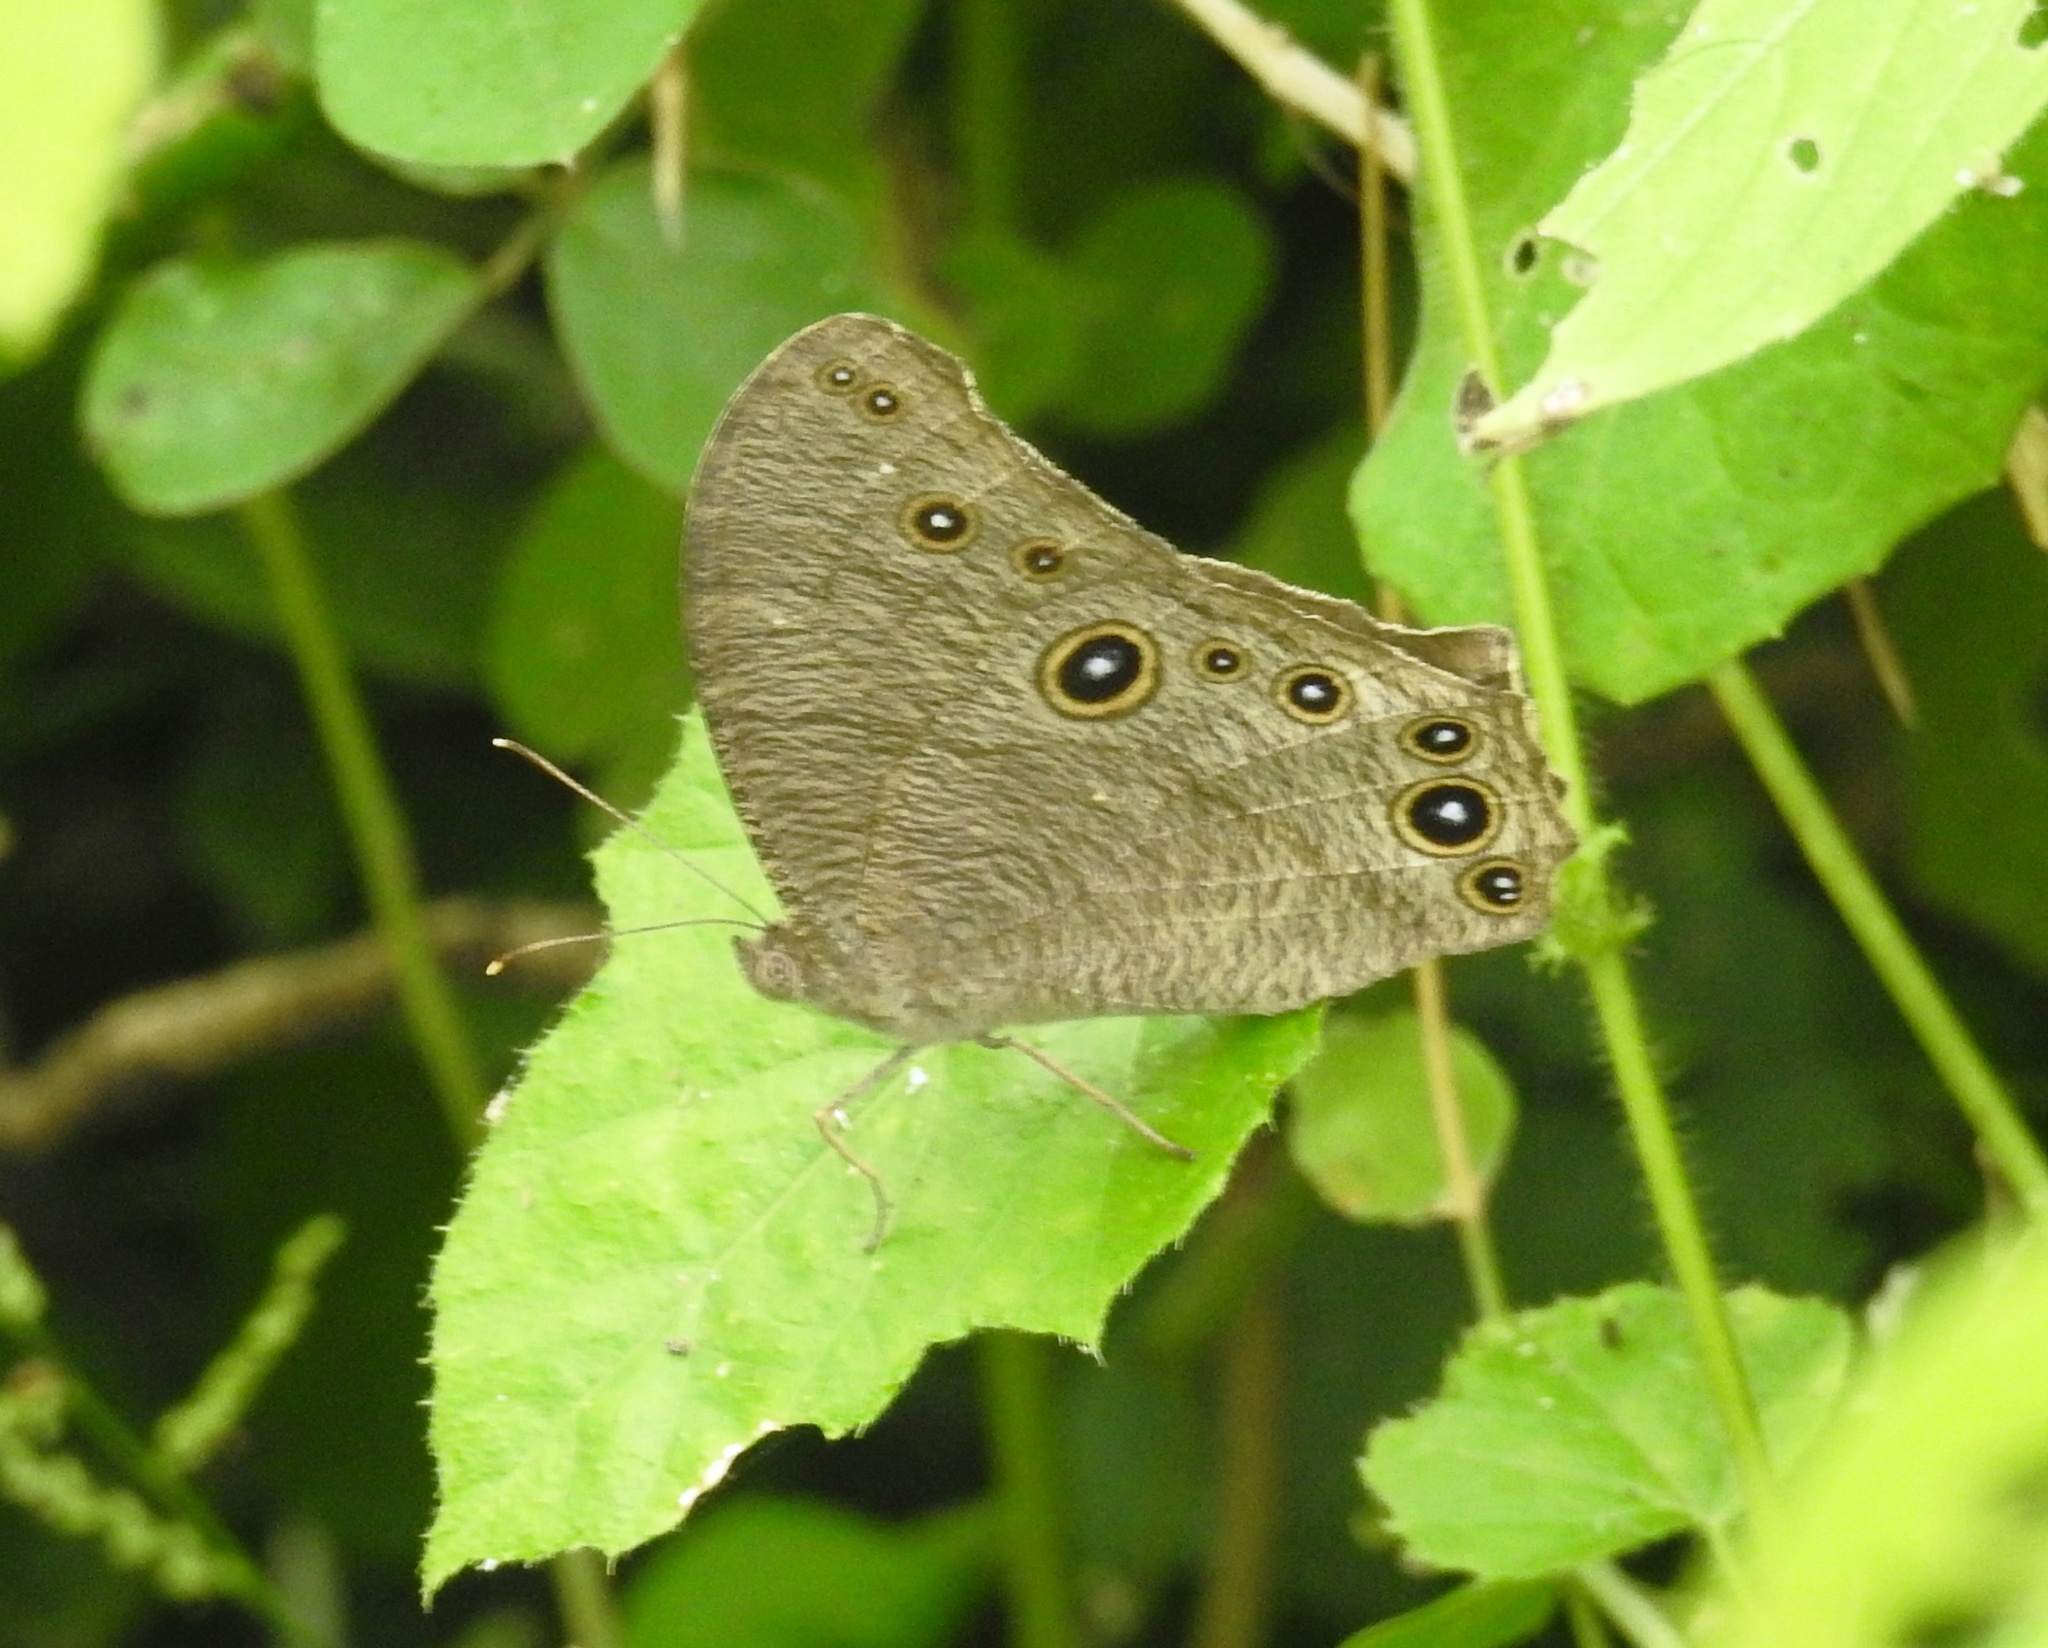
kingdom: Animalia
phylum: Arthropoda
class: Insecta
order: Lepidoptera
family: Nymphalidae
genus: Melanitis
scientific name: Melanitis leda
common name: Twilight brown
